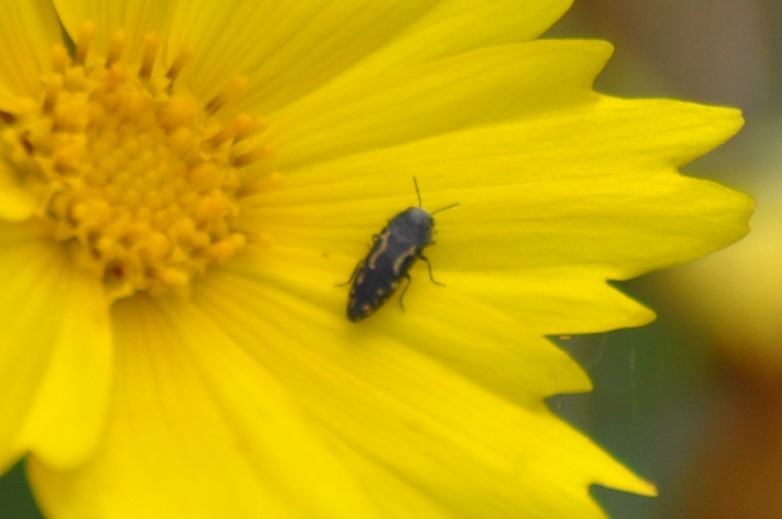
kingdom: Animalia
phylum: Arthropoda
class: Insecta
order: Coleoptera
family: Buprestidae
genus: Acmaeodera
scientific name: Acmaeodera neglecta
